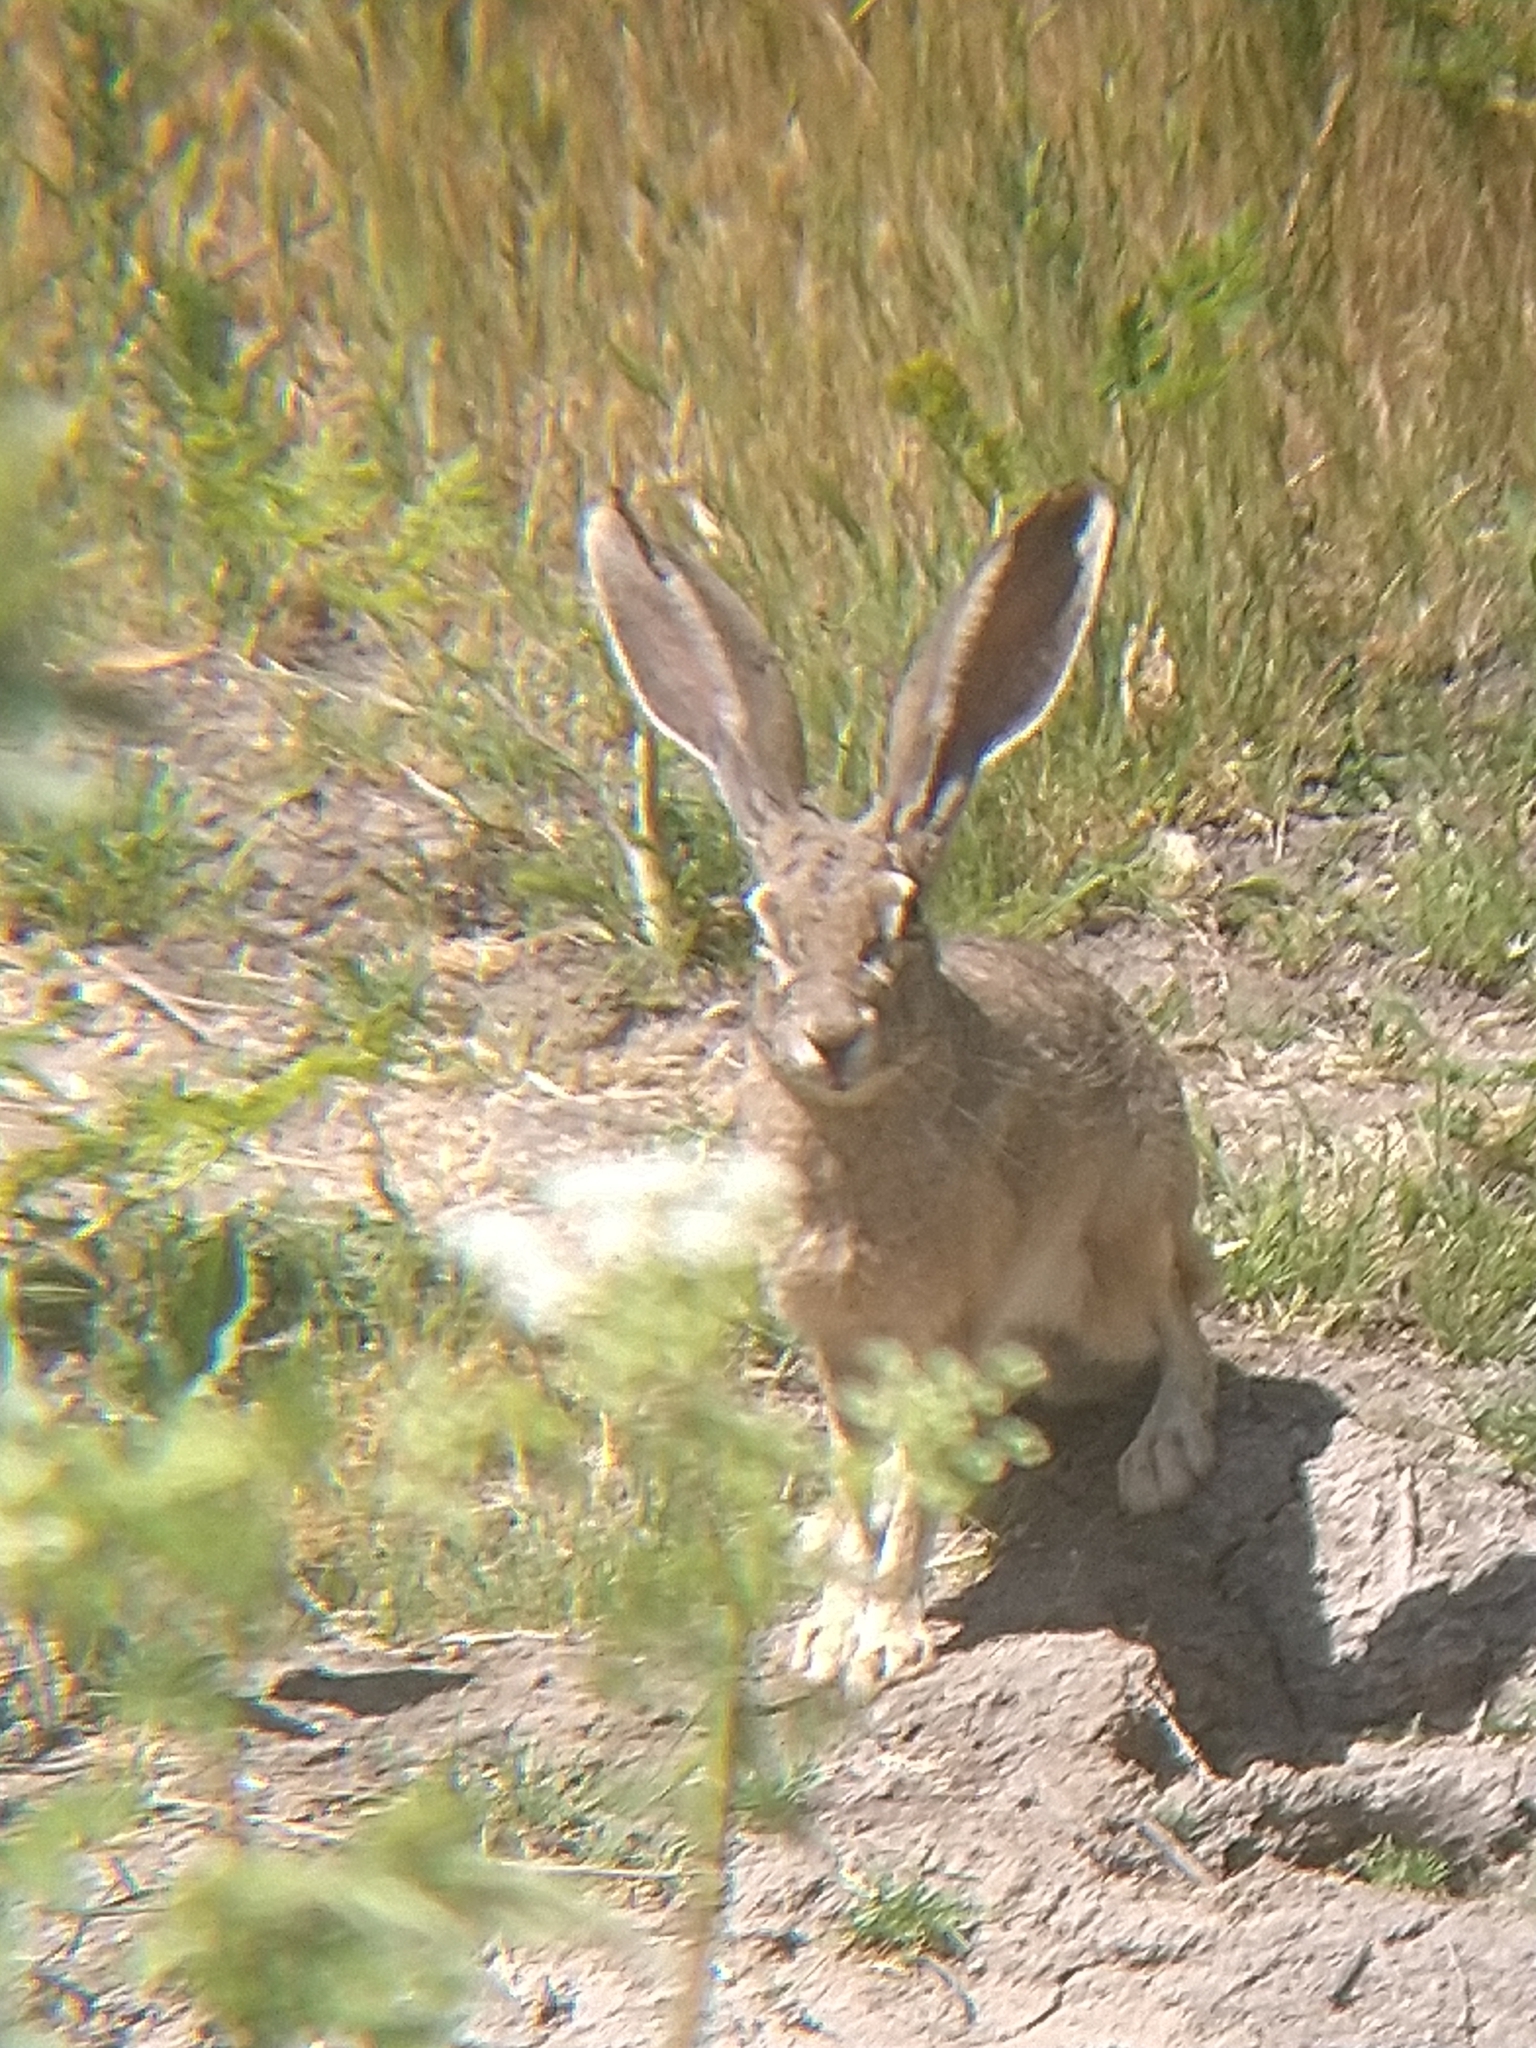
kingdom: Animalia
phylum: Chordata
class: Mammalia
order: Lagomorpha
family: Leporidae
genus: Lepus
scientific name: Lepus californicus
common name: Black-tailed jackrabbit
